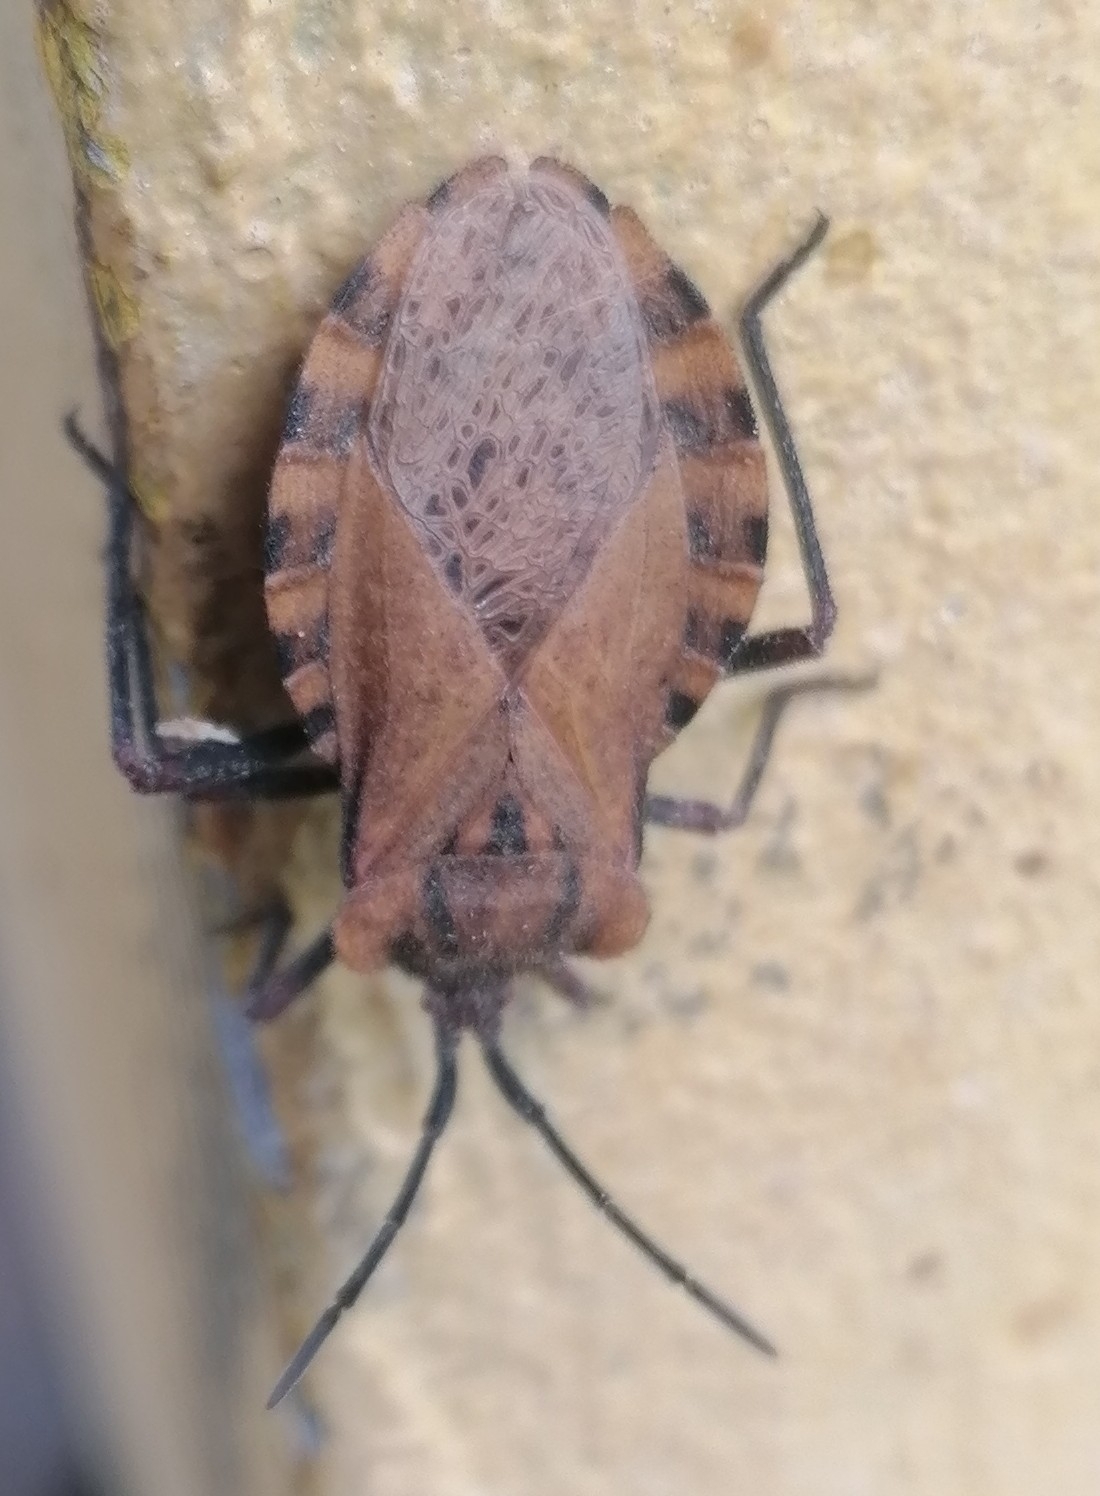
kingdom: Animalia
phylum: Arthropoda
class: Insecta
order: Hemiptera
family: Coreidae
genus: Spartocera
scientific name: Spartocera fusca
